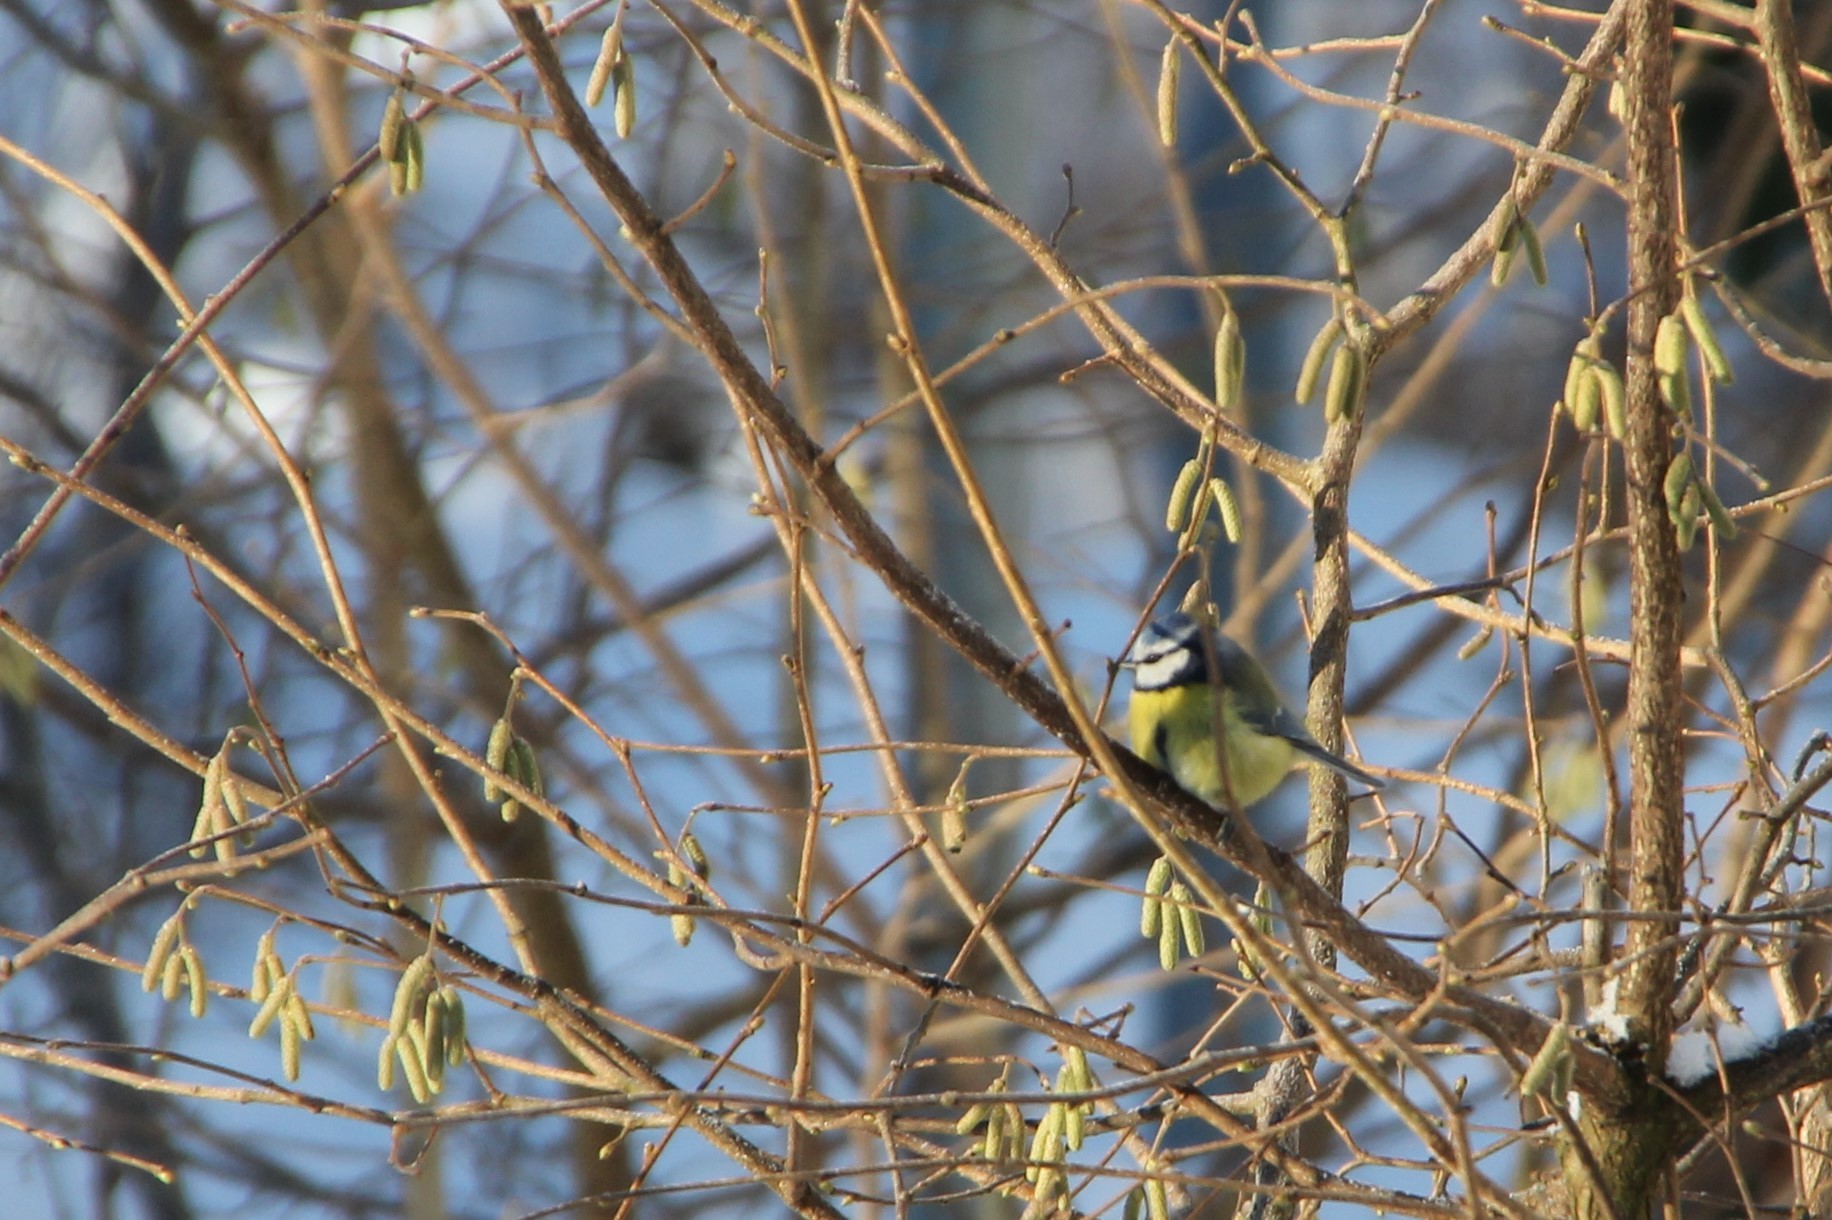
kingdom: Plantae
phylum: Tracheophyta
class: Magnoliopsida
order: Fagales
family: Betulaceae
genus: Corylus
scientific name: Corylus avellana
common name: European hazel
